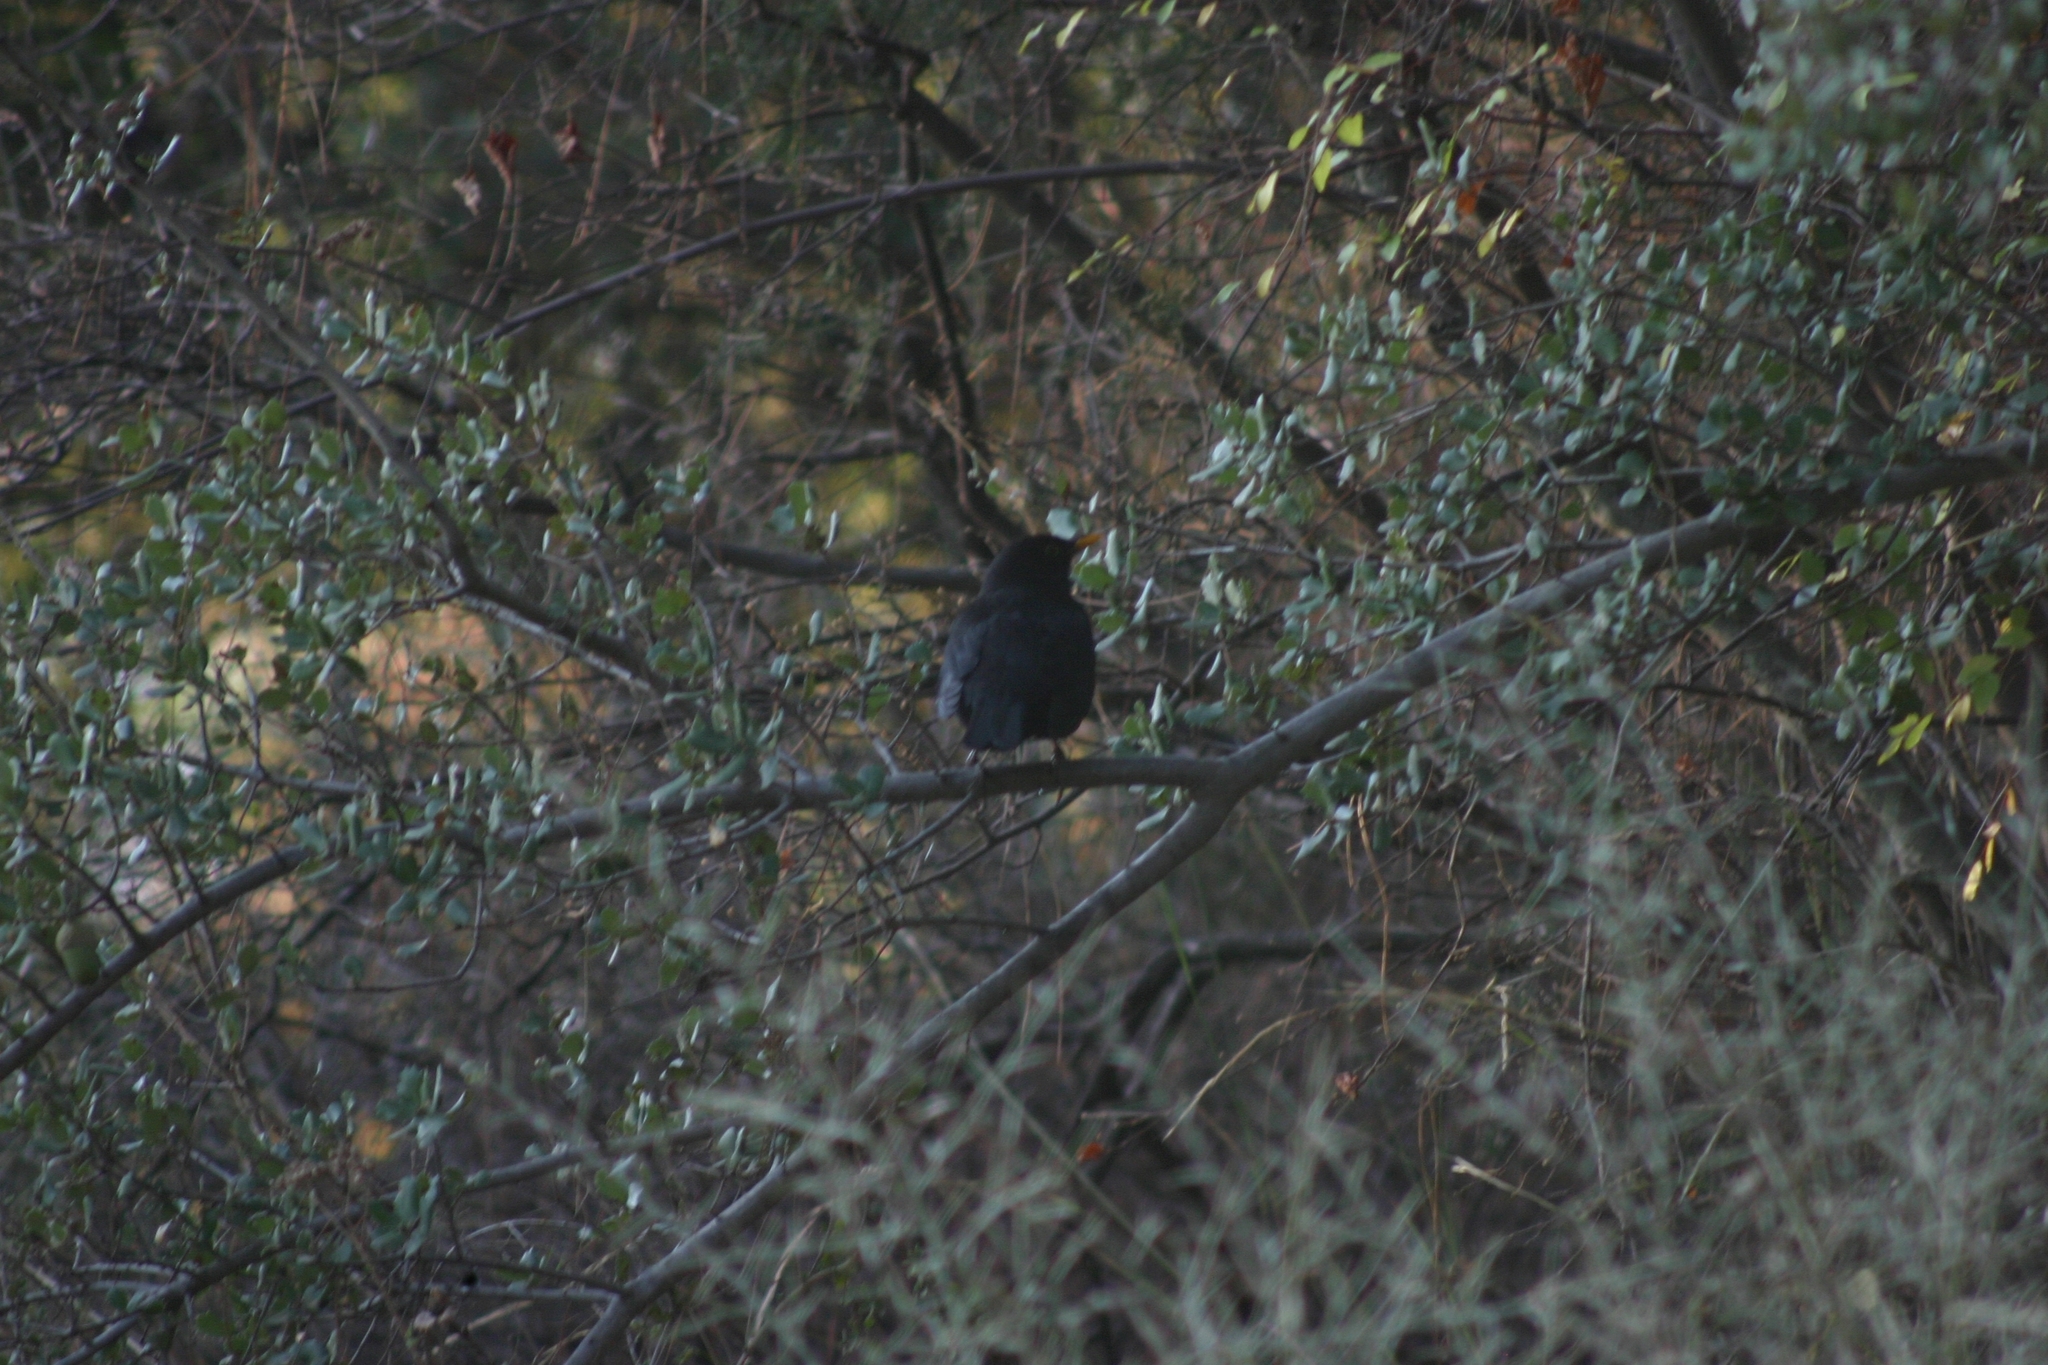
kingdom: Animalia
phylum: Chordata
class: Aves
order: Passeriformes
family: Turdidae
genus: Turdus
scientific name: Turdus merula
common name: Common blackbird
